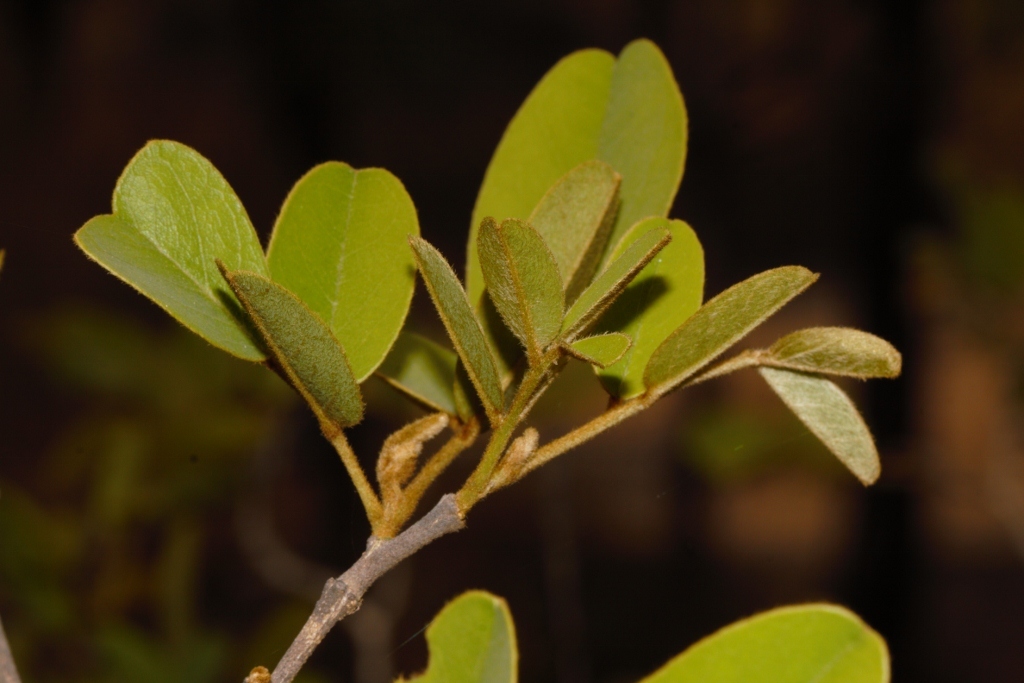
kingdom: Plantae
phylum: Tracheophyta
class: Magnoliopsida
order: Fabales
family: Fabaceae
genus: Bobgunnia
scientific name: Bobgunnia madagascariensis
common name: Snake bean plant
